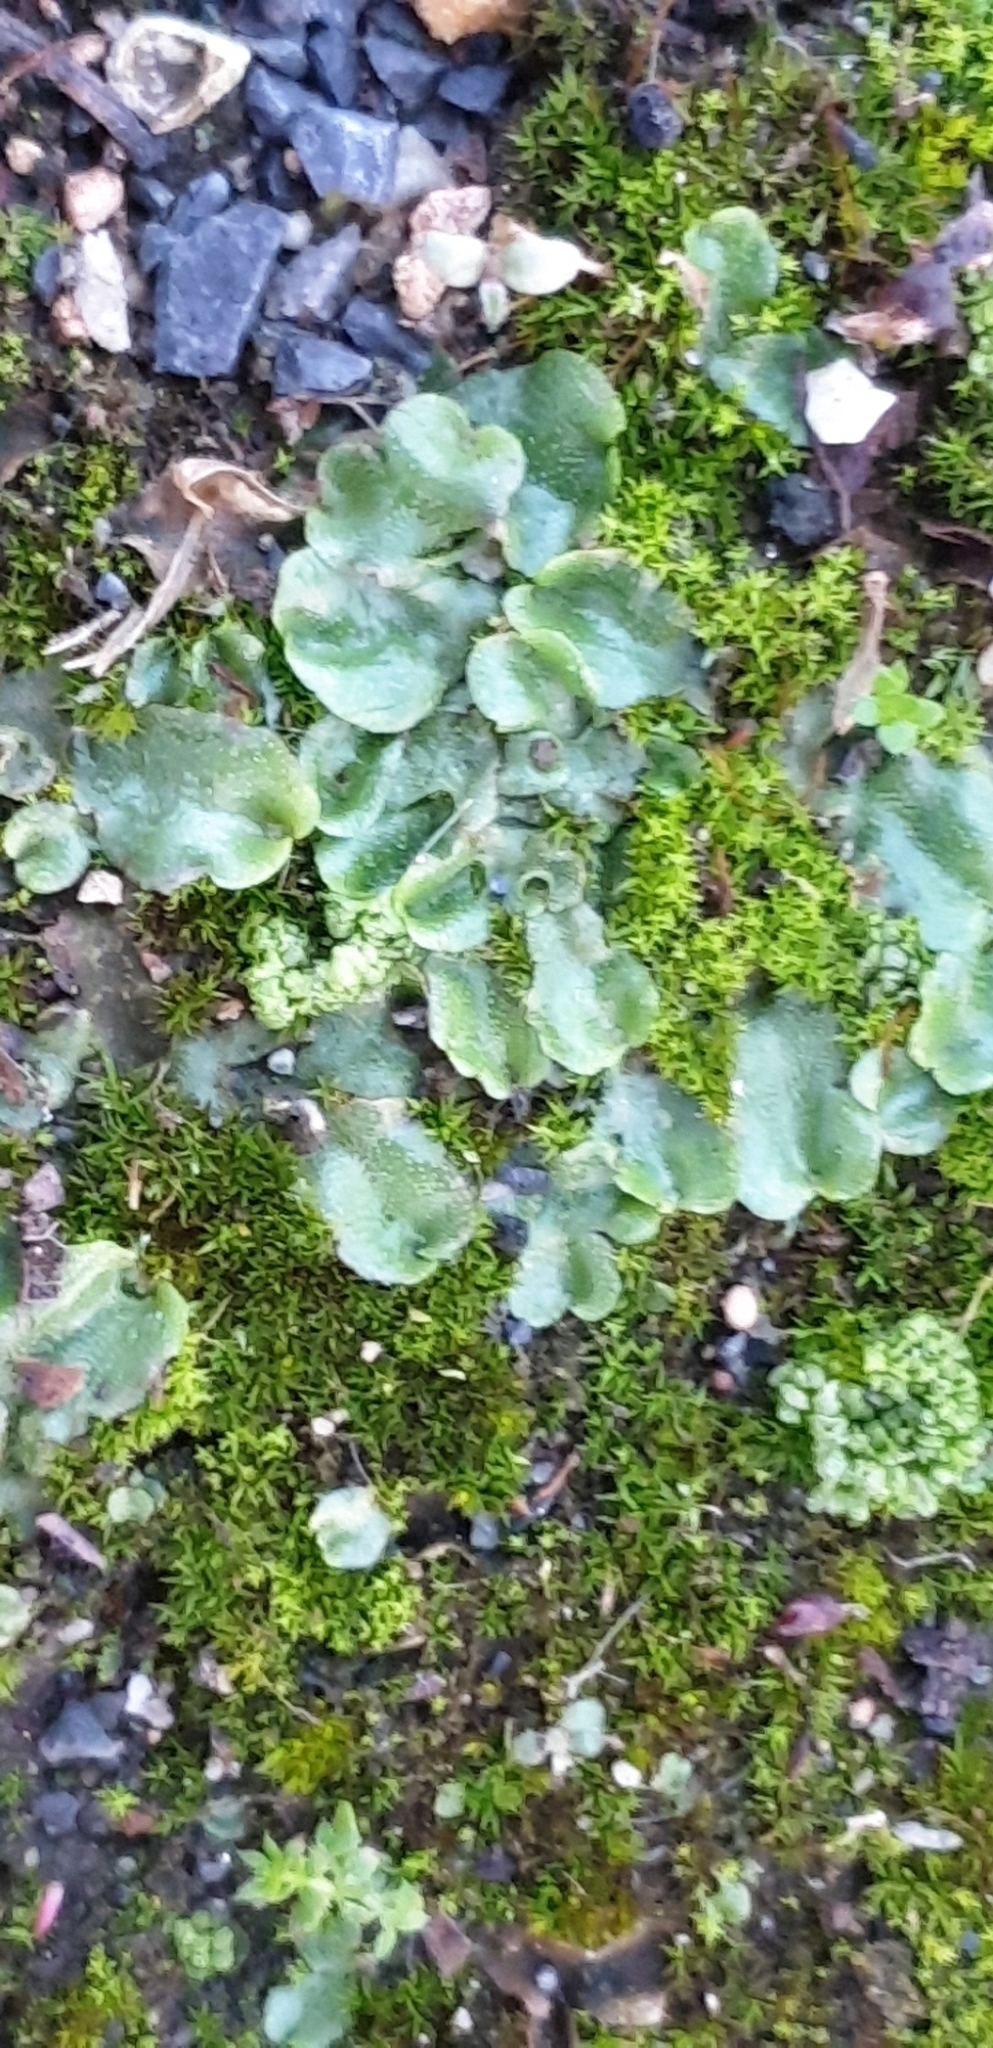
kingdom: Plantae
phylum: Marchantiophyta
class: Marchantiopsida
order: Lunulariales
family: Lunulariaceae
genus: Lunularia
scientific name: Lunularia cruciata
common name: Crescent-cup liverwort
